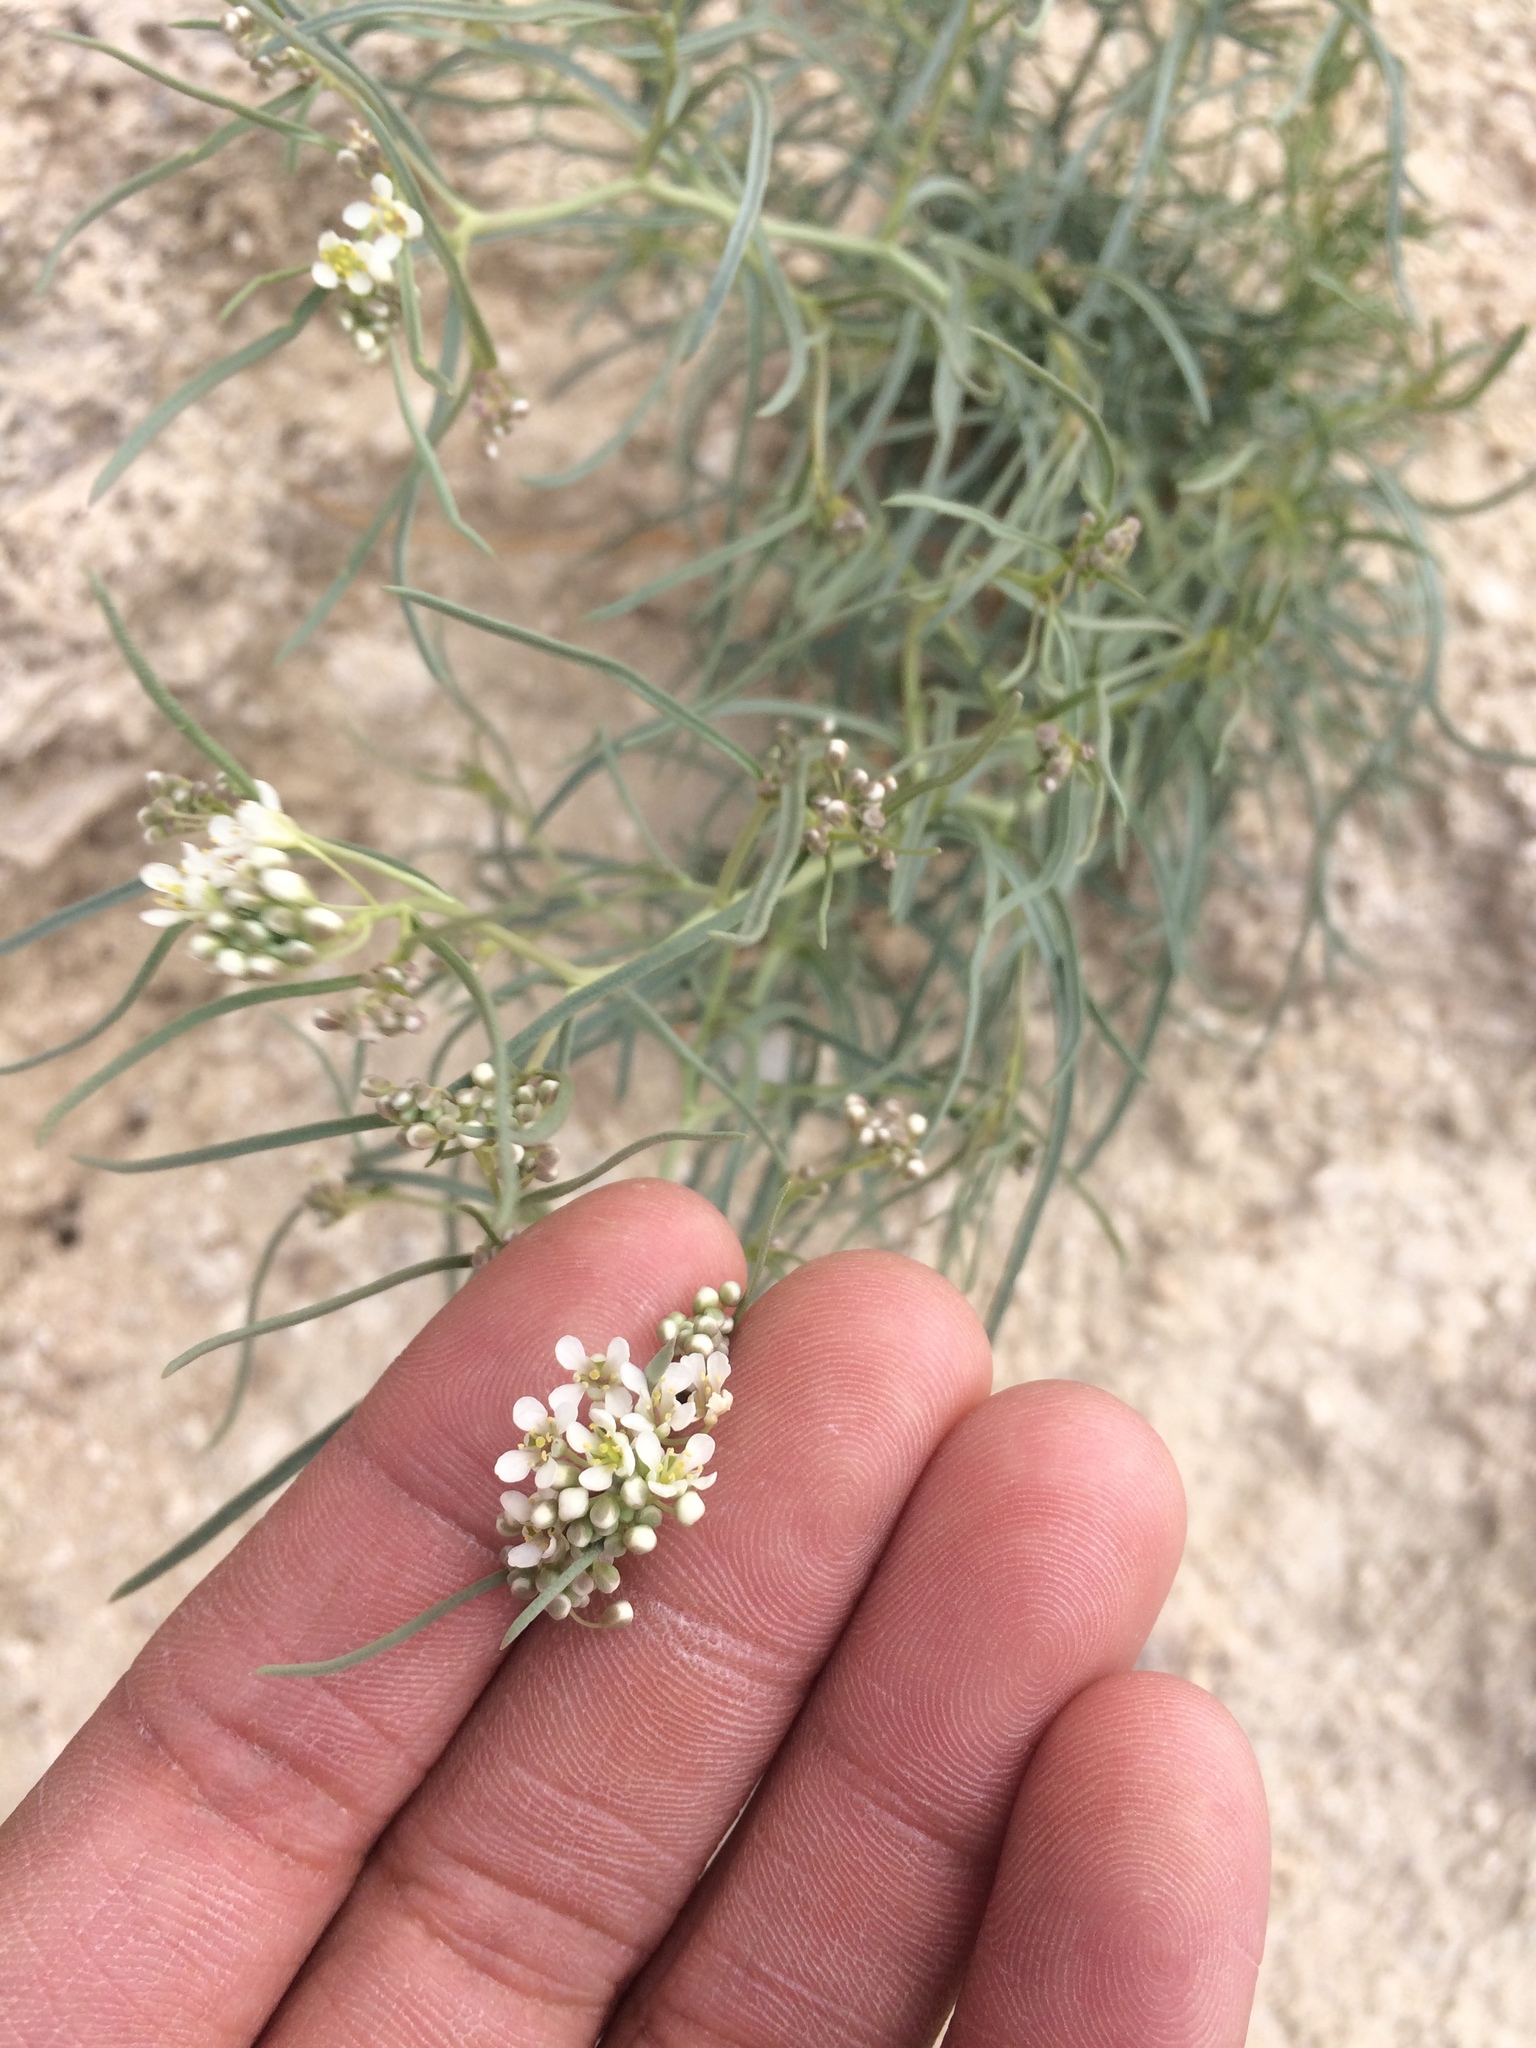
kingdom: Plantae
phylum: Tracheophyta
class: Magnoliopsida
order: Brassicales
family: Brassicaceae
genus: Lepidium
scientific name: Lepidium fremontii
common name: Fremont's pepperwort
